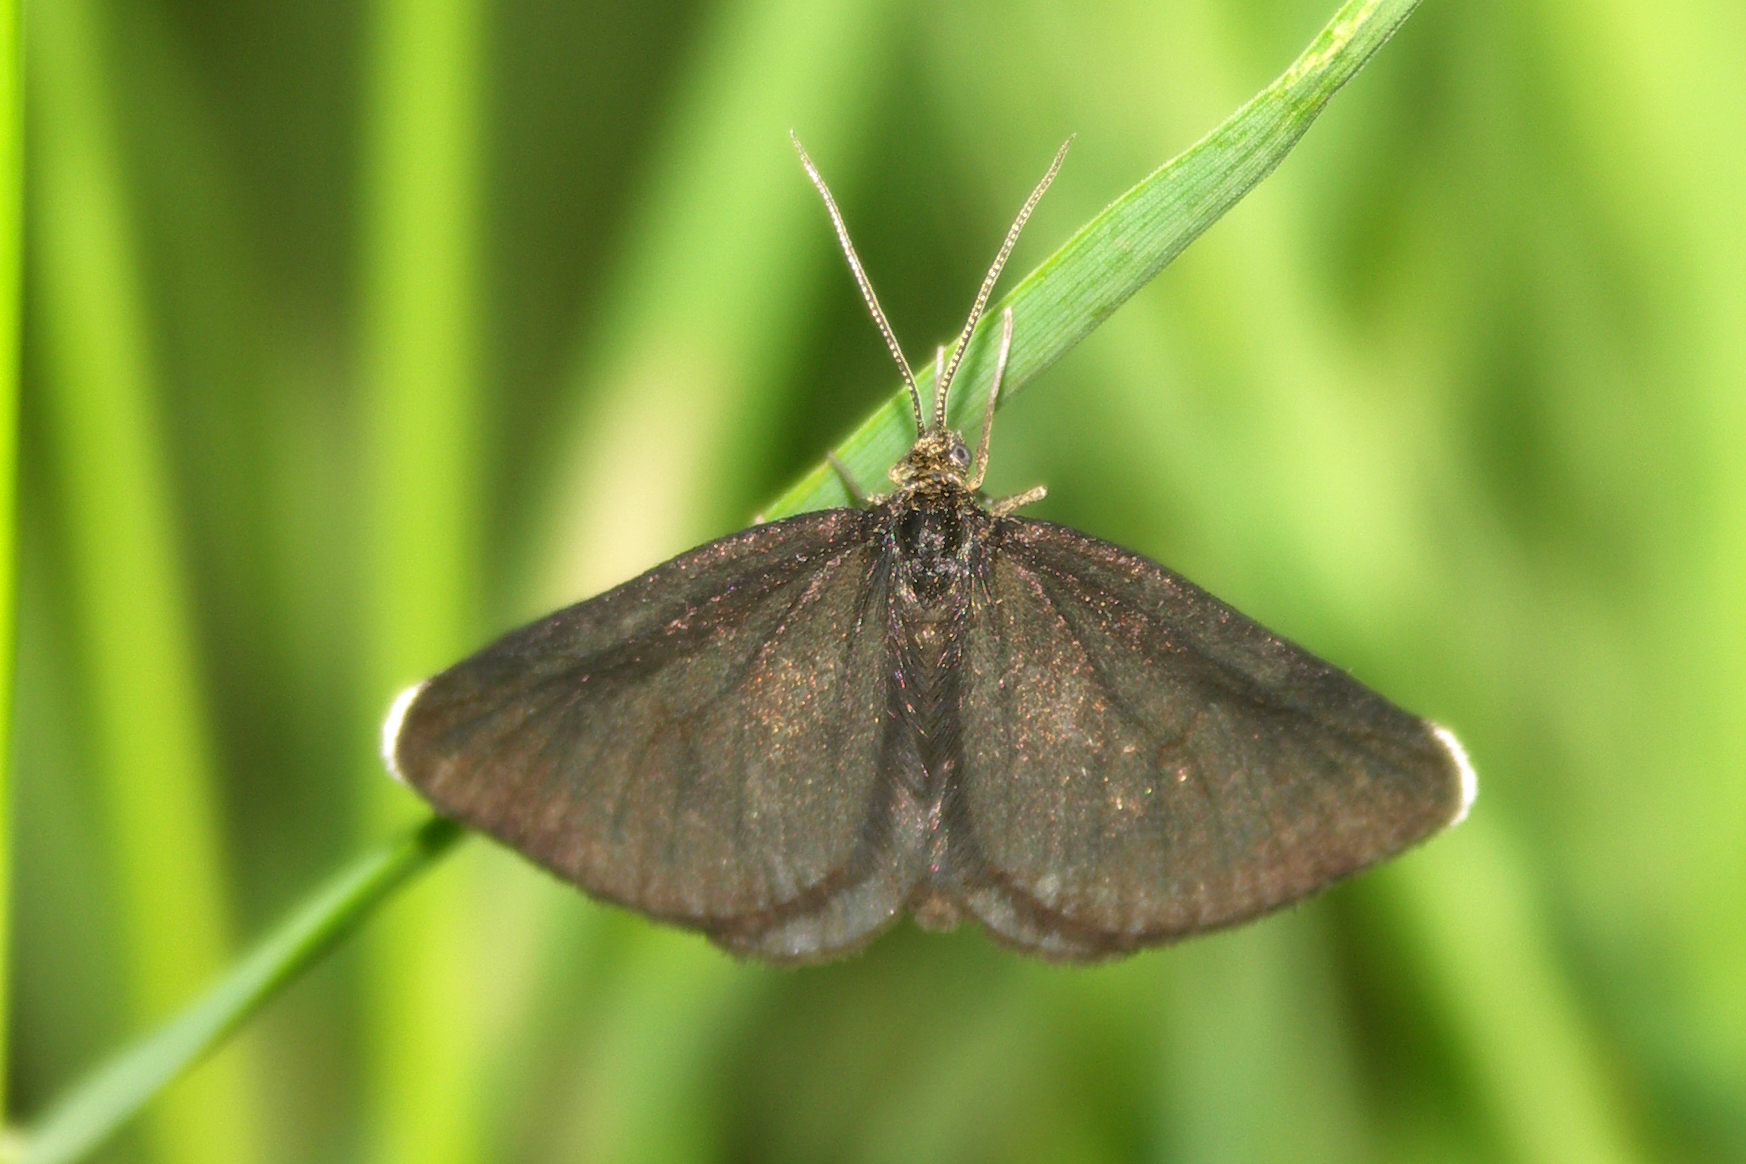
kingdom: Animalia
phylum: Arthropoda
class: Insecta
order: Lepidoptera
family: Geometridae
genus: Odezia
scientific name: Odezia atrata
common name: Chimney sweeper
